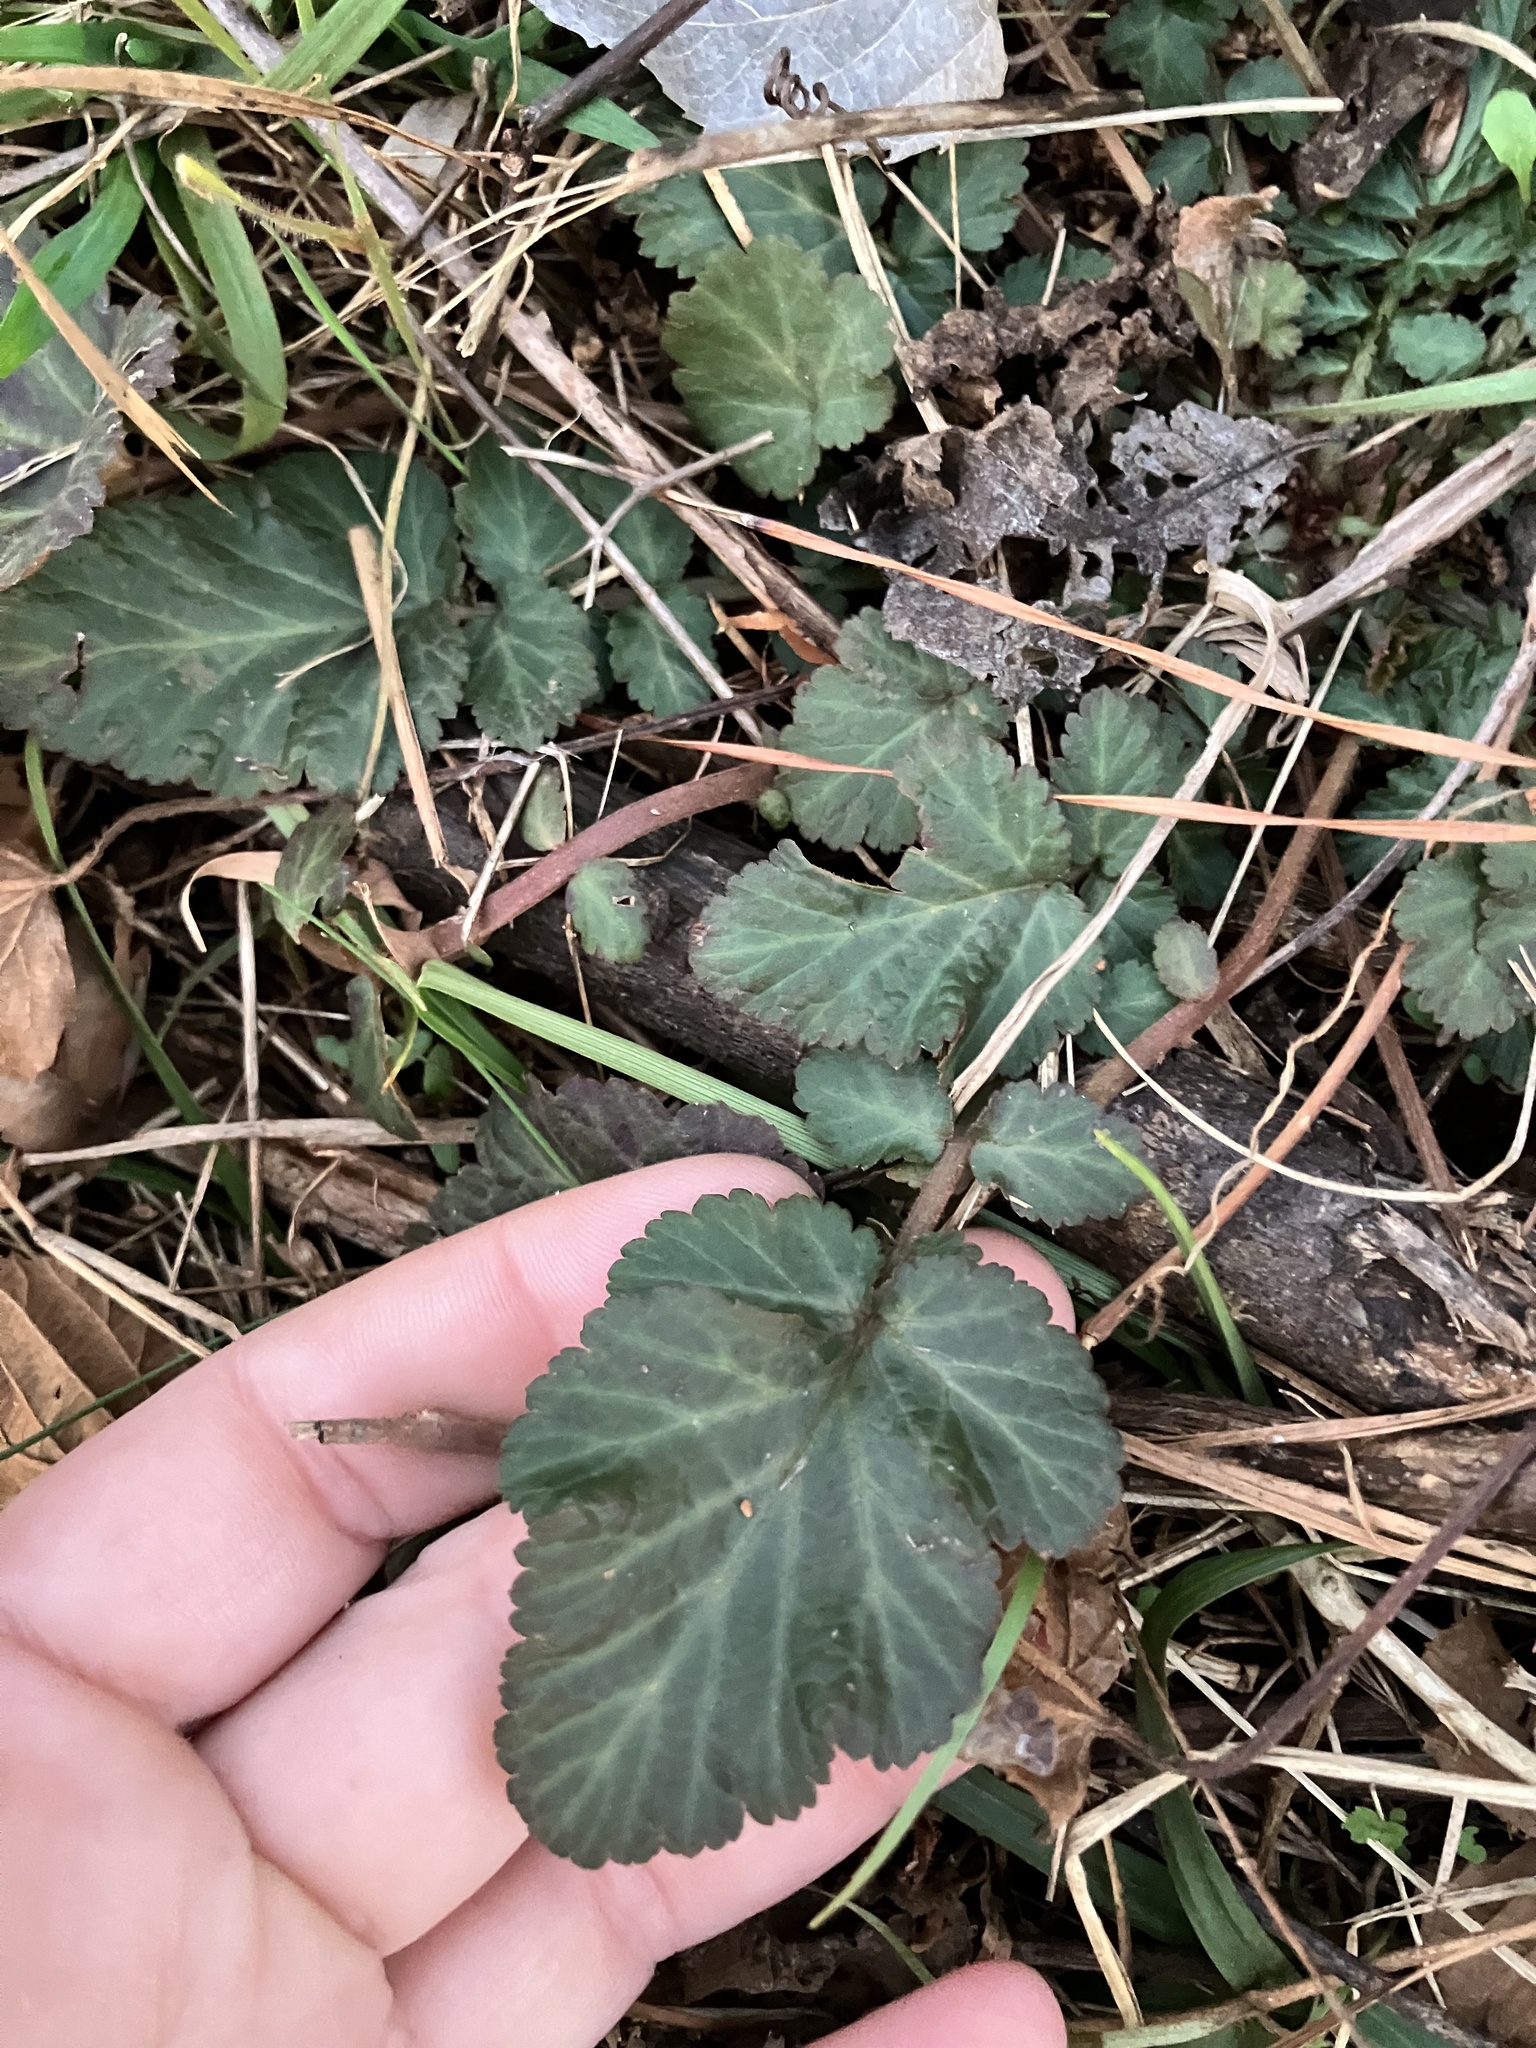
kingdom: Plantae
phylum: Tracheophyta
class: Magnoliopsida
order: Rosales
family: Rosaceae
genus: Geum
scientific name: Geum canadense
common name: White avens
